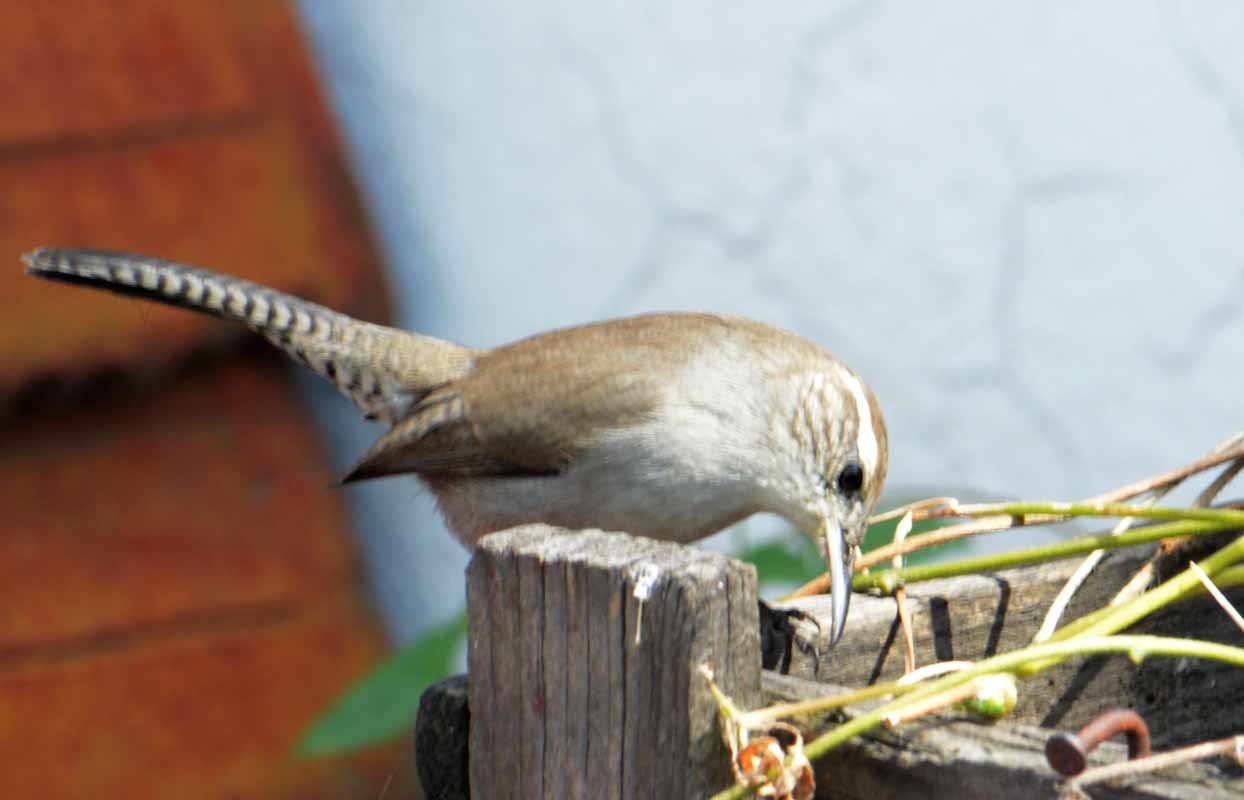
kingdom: Animalia
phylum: Chordata
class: Aves
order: Passeriformes
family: Troglodytidae
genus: Thryomanes
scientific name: Thryomanes bewickii
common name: Bewick's wren
